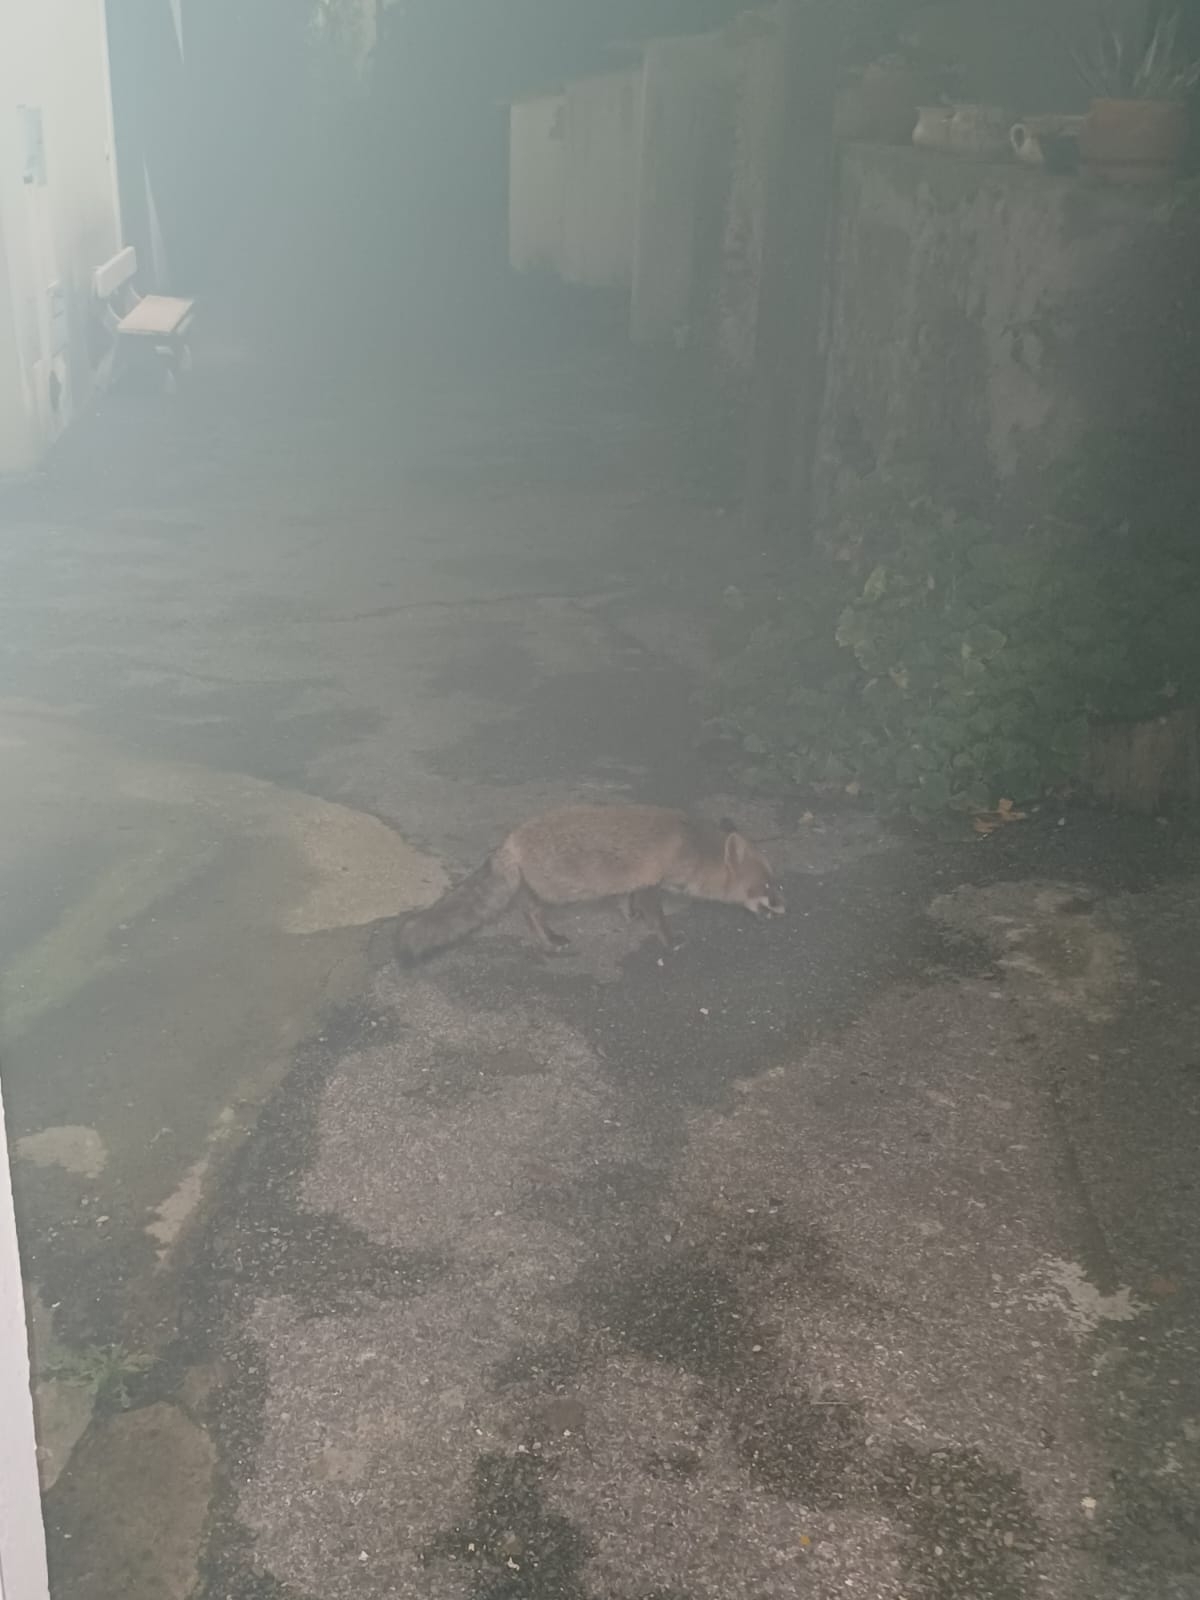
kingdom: Animalia
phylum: Chordata
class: Mammalia
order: Carnivora
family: Canidae
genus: Vulpes
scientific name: Vulpes vulpes
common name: Red fox
